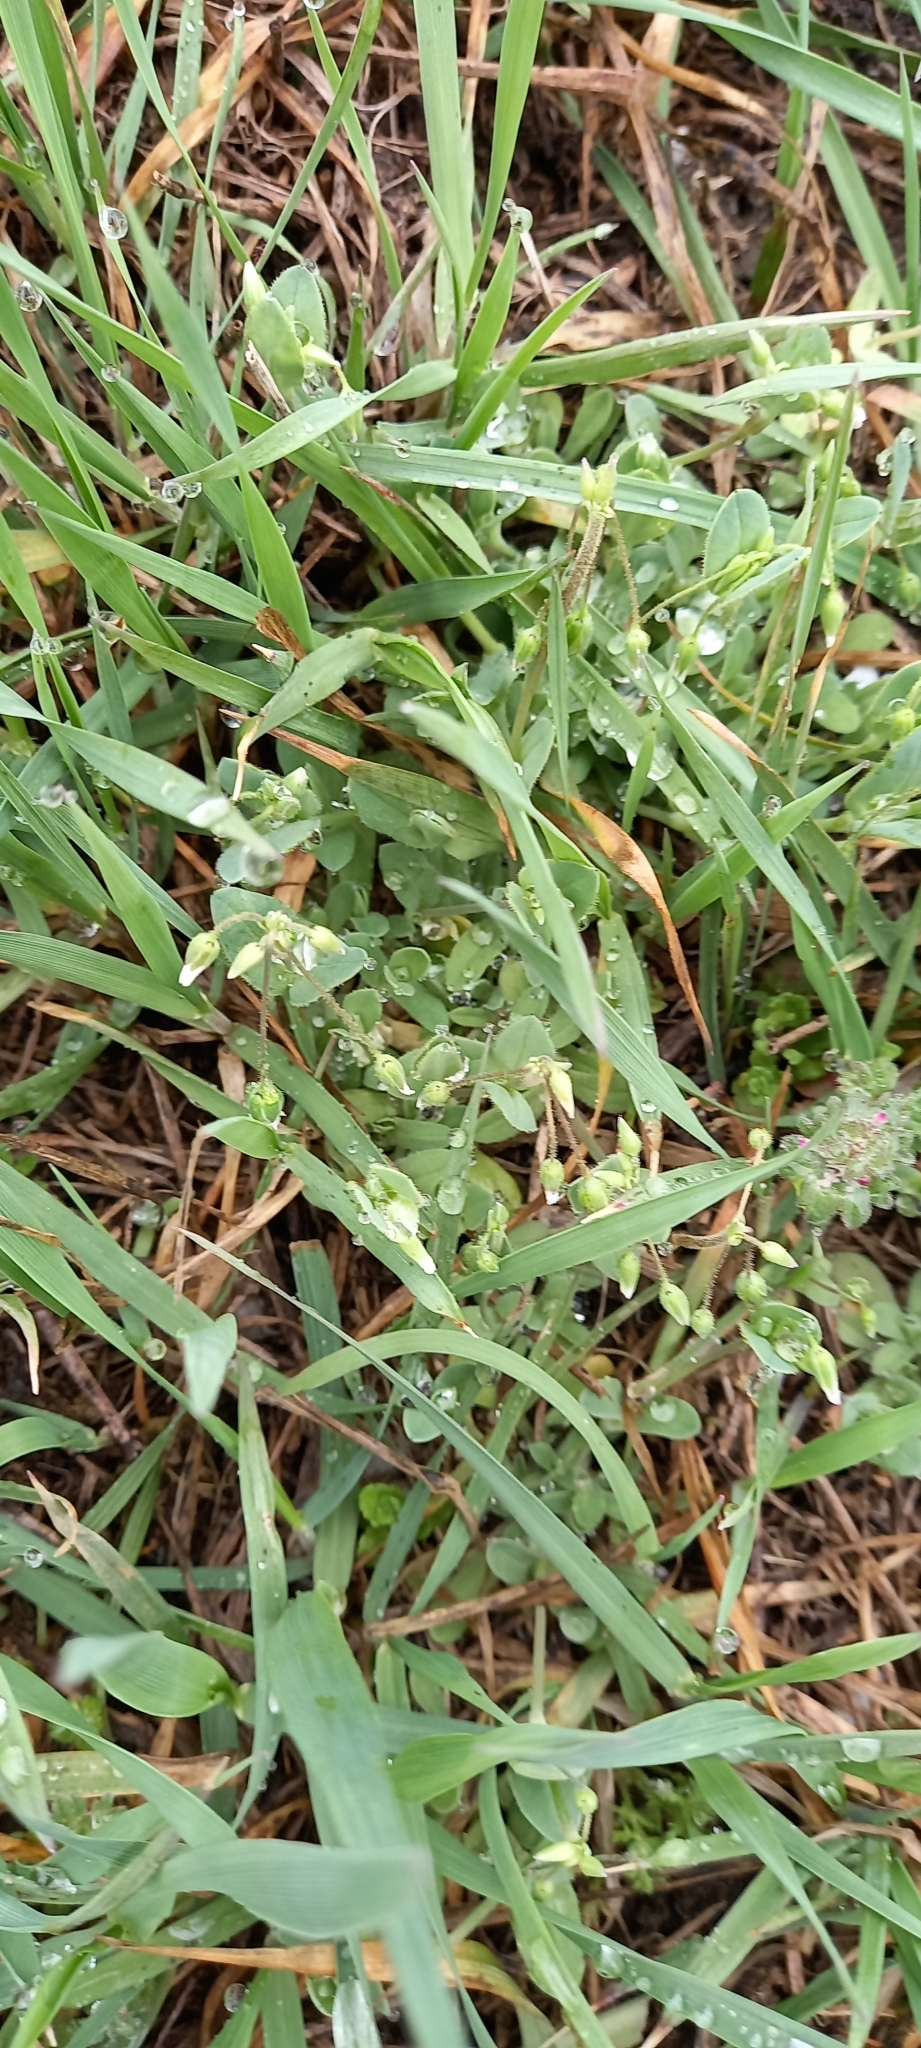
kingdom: Plantae
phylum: Tracheophyta
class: Magnoliopsida
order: Caryophyllales
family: Caryophyllaceae
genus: Holosteum
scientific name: Holosteum umbellatum
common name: Jagged chickweed
